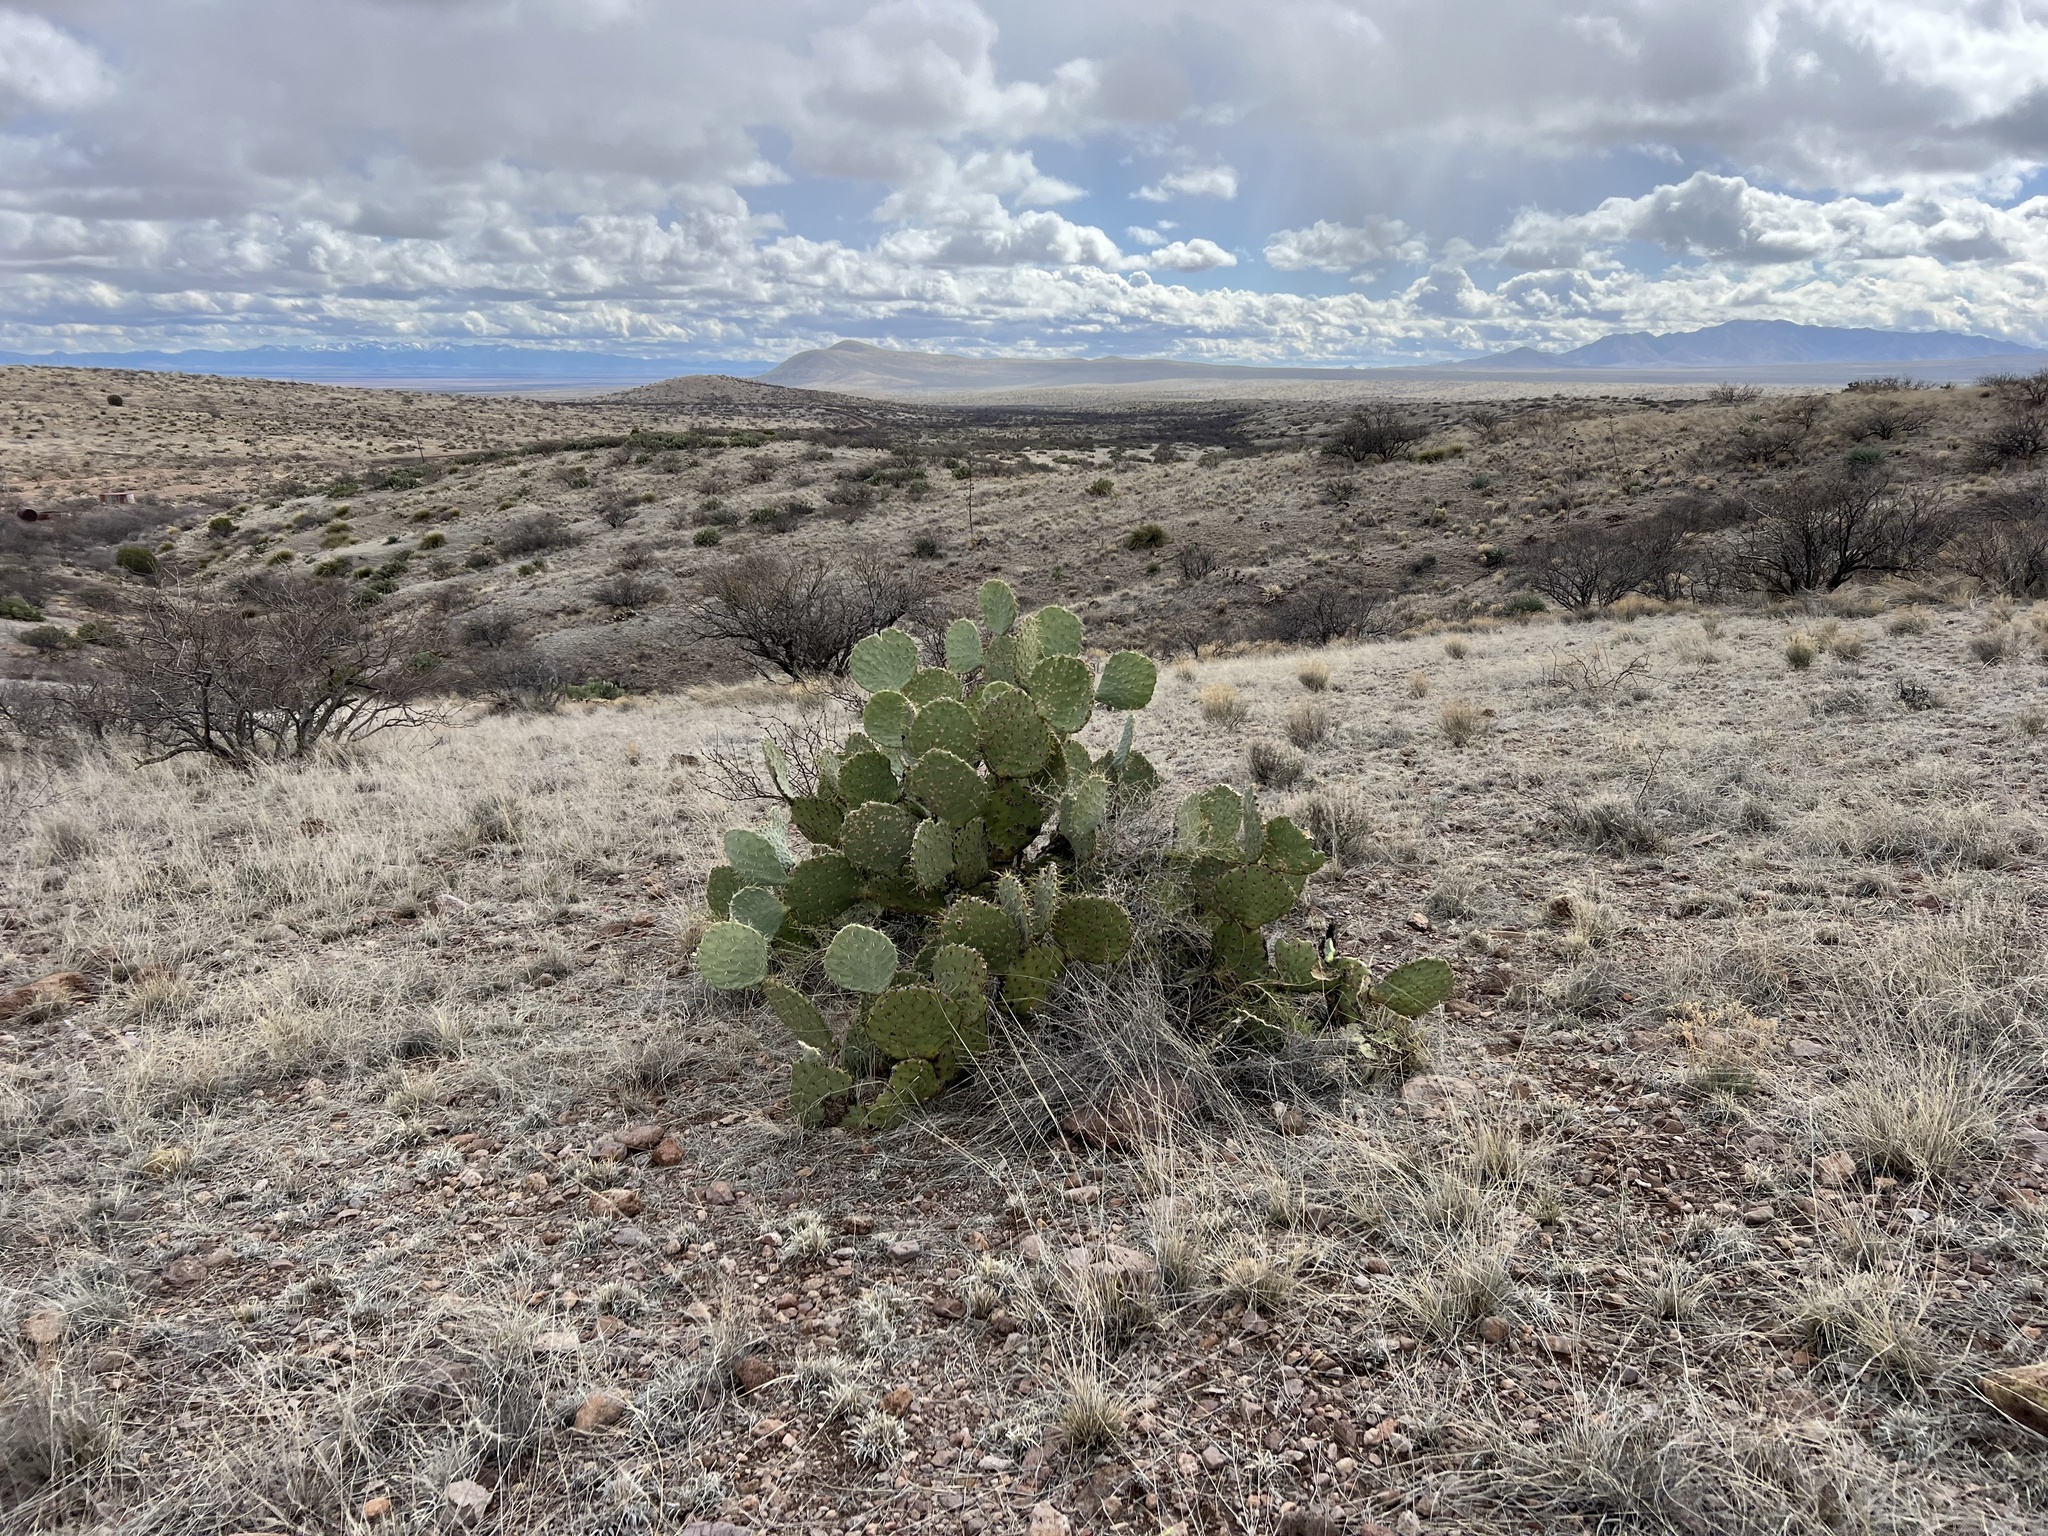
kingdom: Plantae
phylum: Tracheophyta
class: Magnoliopsida
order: Caryophyllales
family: Cactaceae
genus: Opuntia
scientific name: Opuntia engelmannii
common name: Cactus-apple
